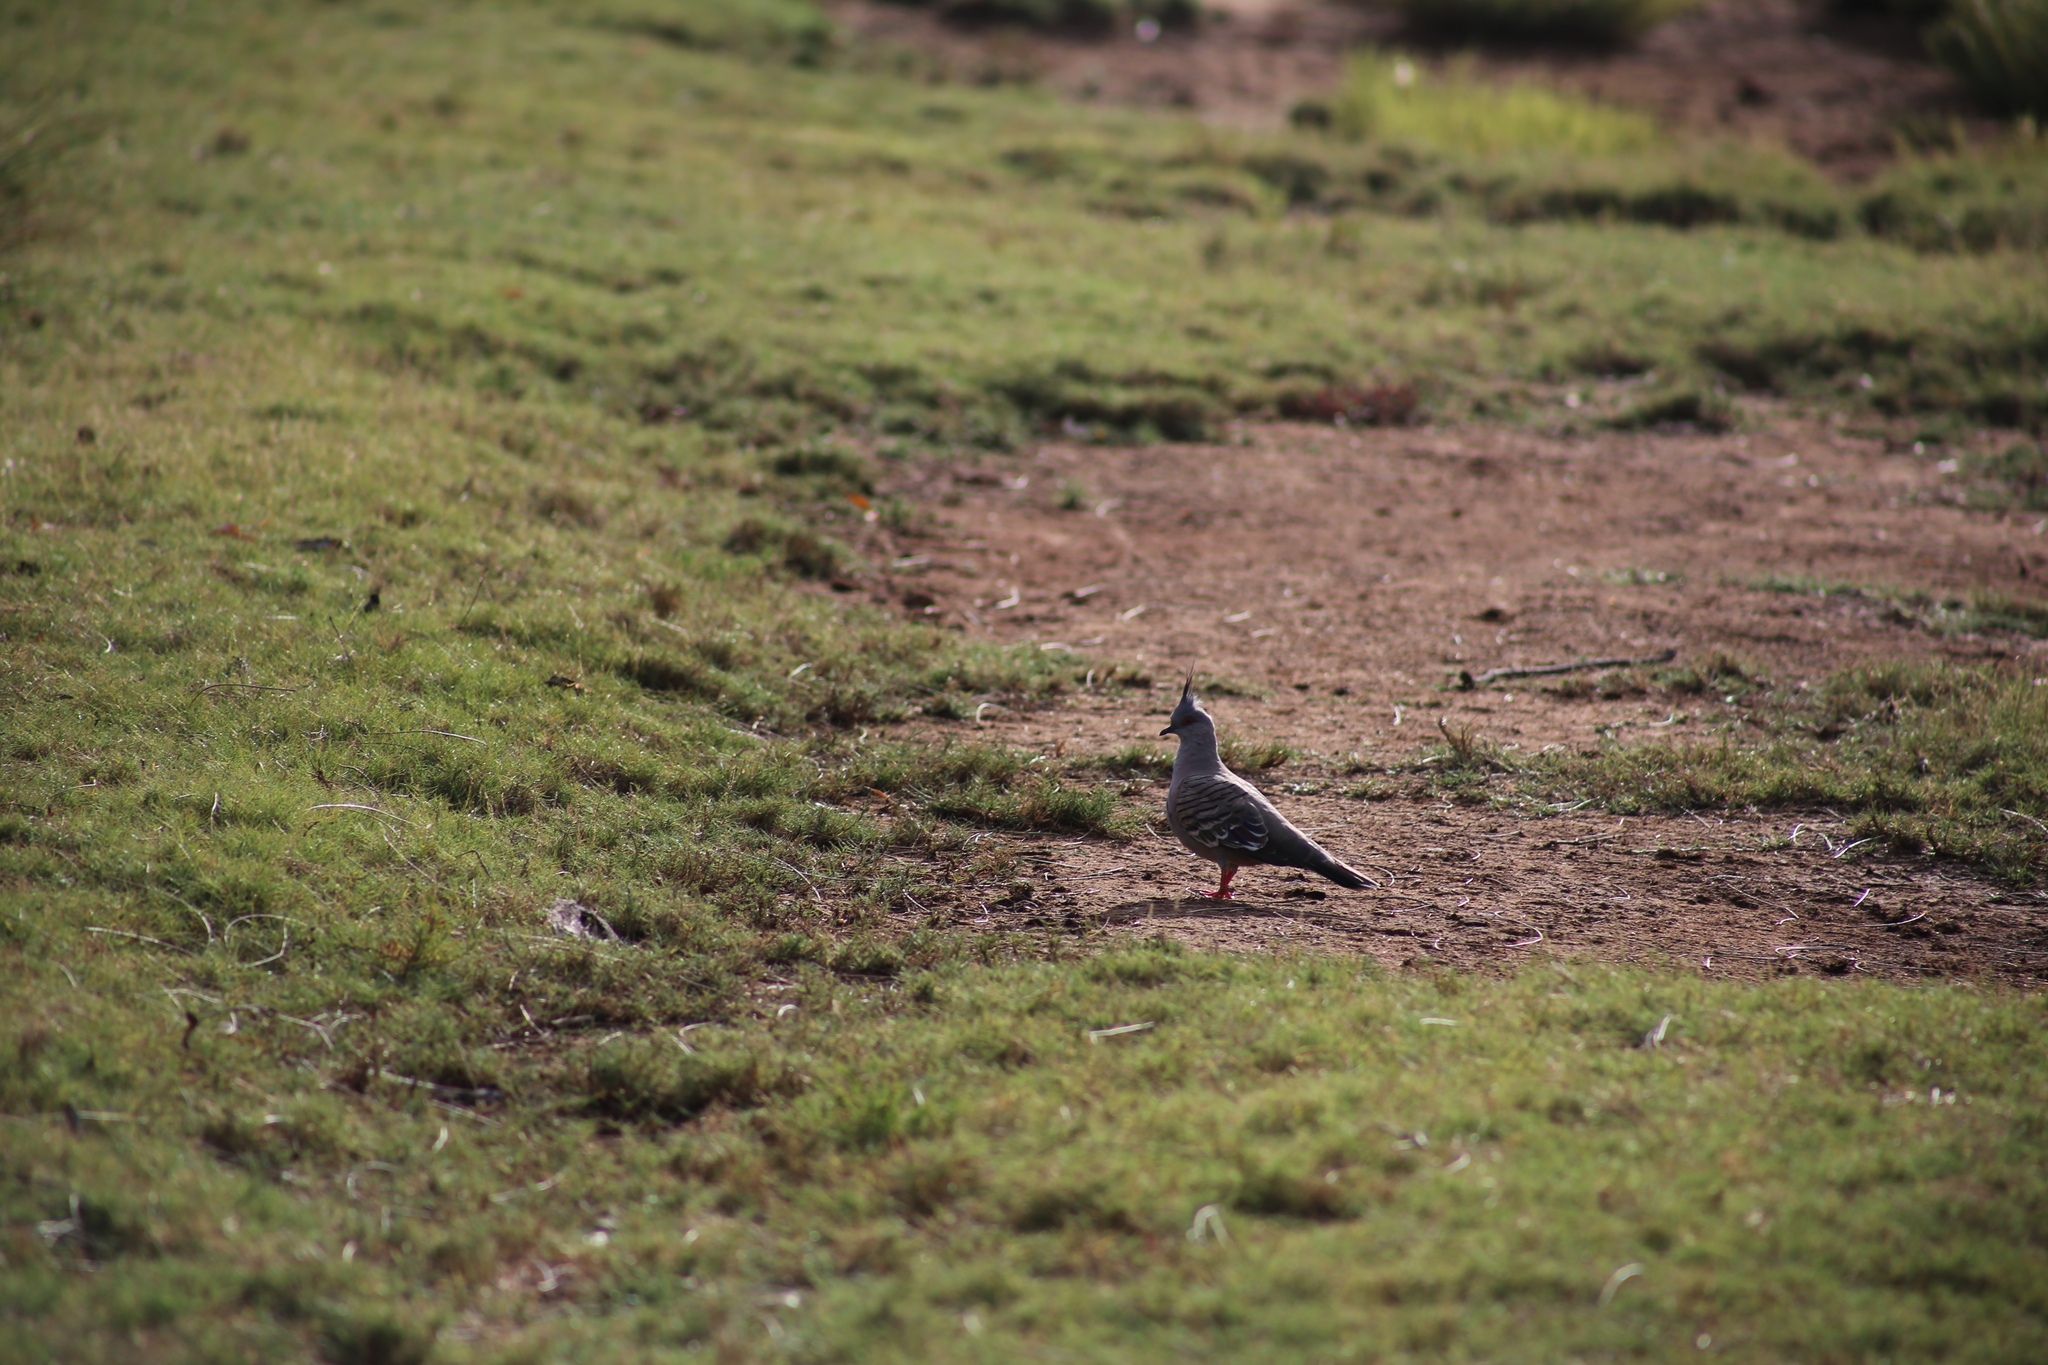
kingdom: Animalia
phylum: Chordata
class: Aves
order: Columbiformes
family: Columbidae
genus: Ocyphaps
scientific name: Ocyphaps lophotes
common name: Crested pigeon
